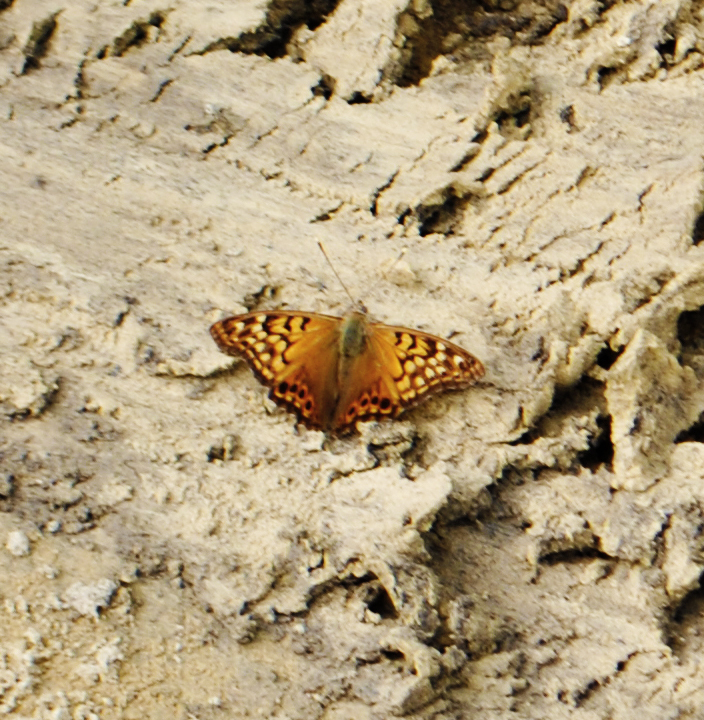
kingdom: Animalia
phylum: Arthropoda
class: Insecta
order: Lepidoptera
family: Nymphalidae
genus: Asterocampa
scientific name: Asterocampa clyton
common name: Tawny emperor
